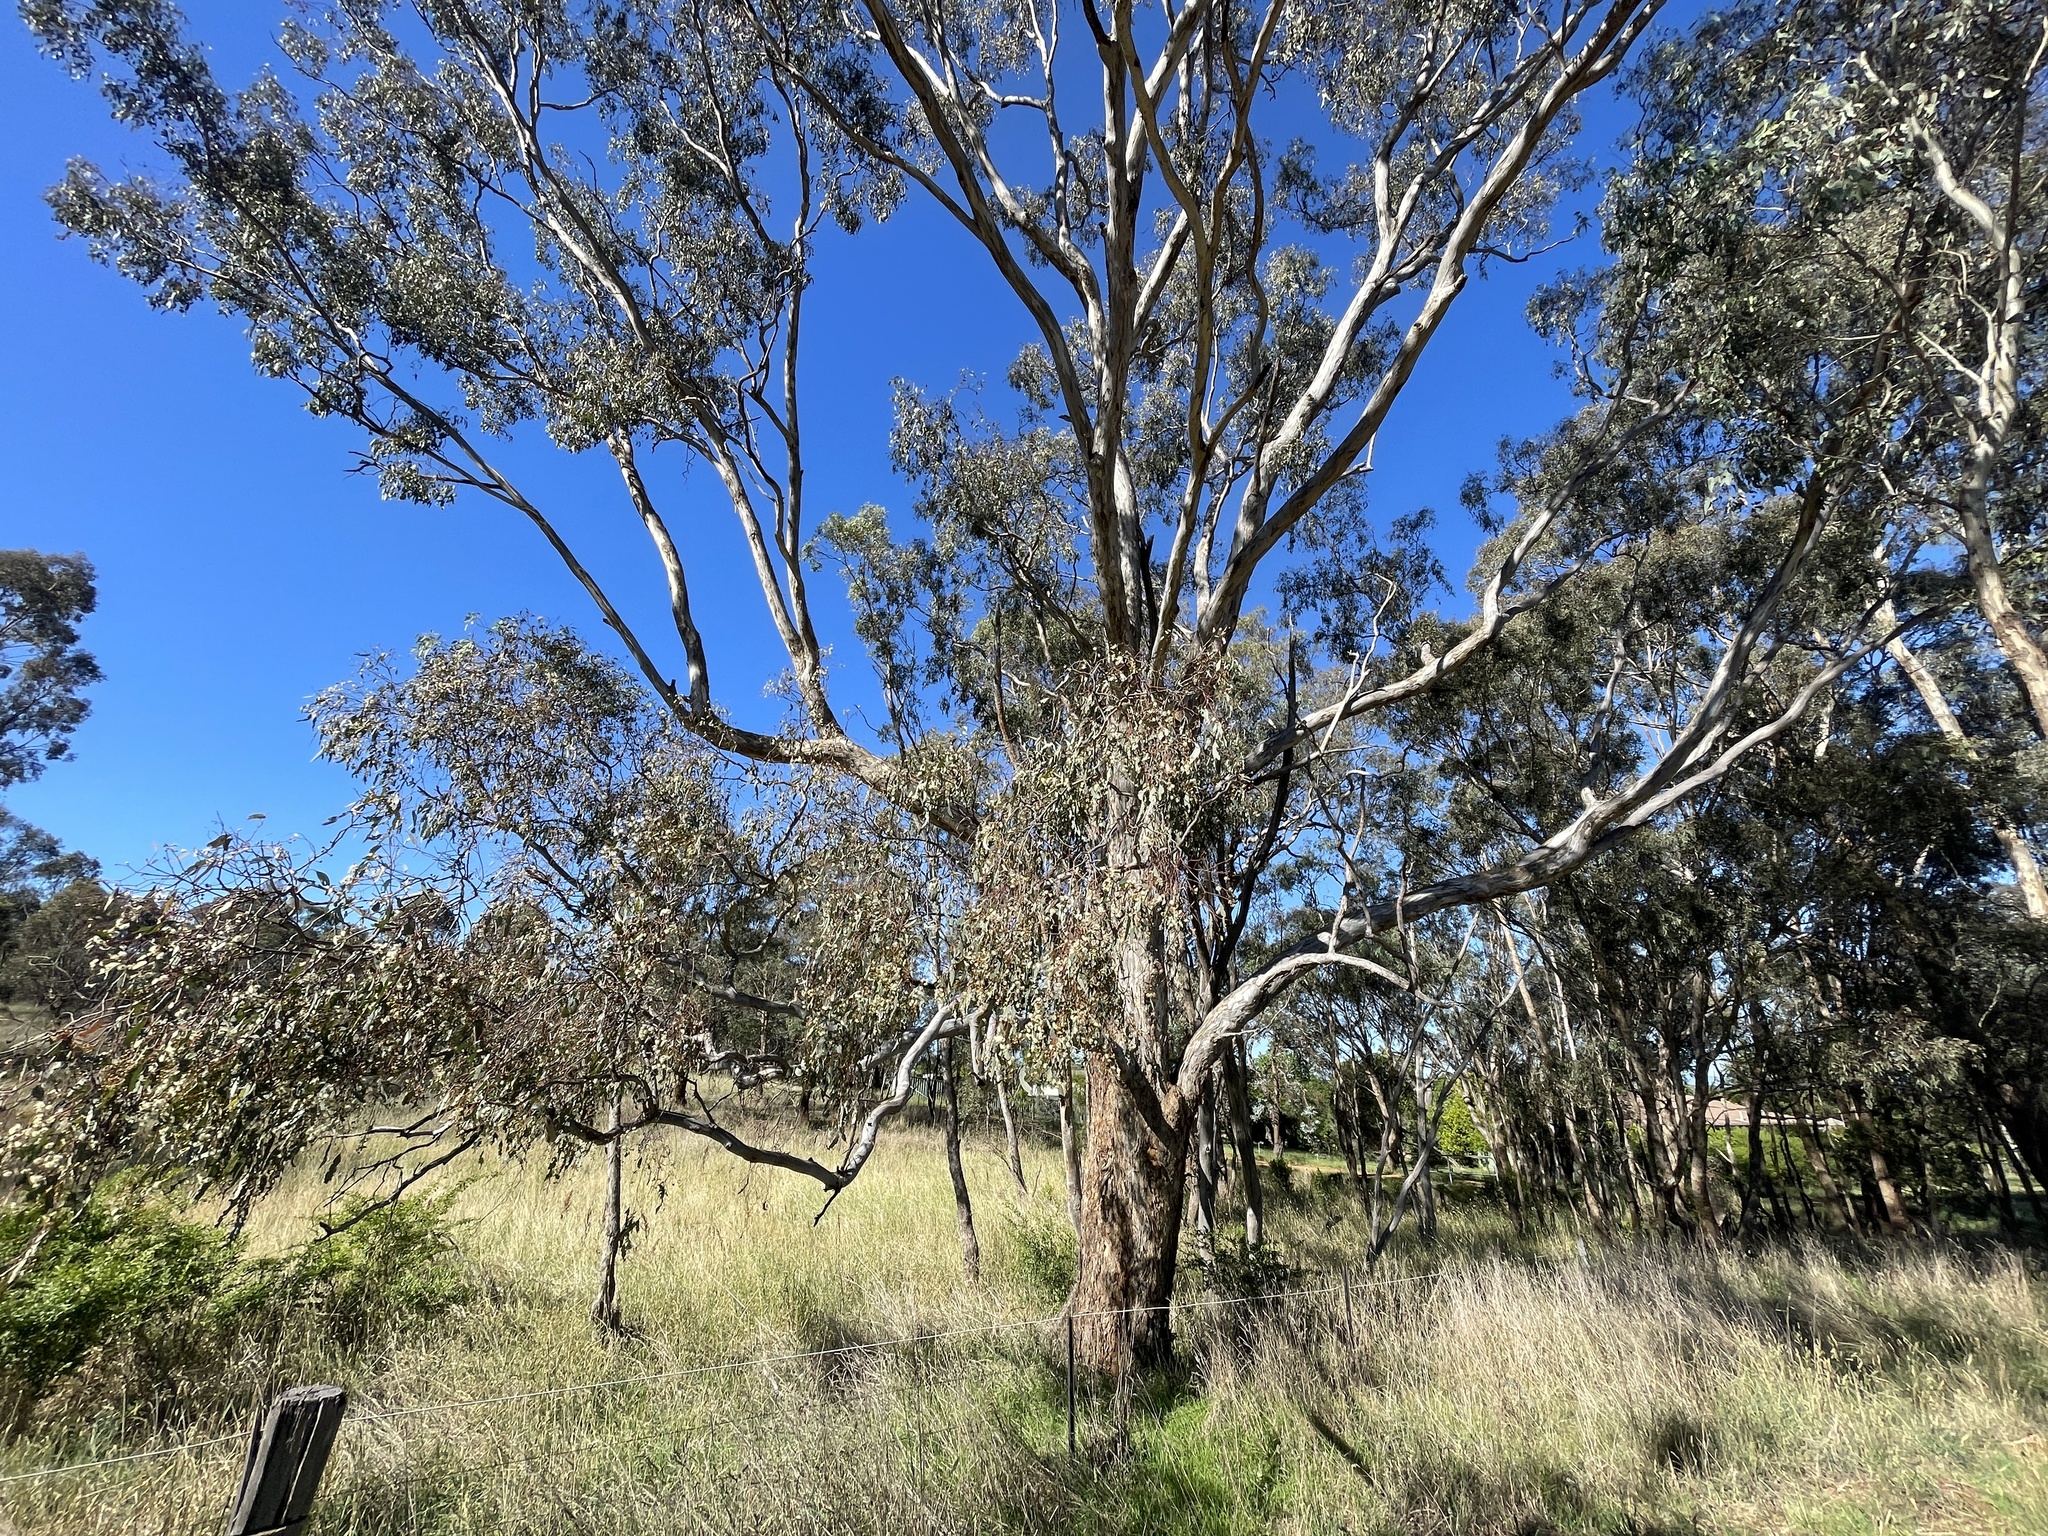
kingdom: Plantae
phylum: Tracheophyta
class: Magnoliopsida
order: Myrtales
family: Myrtaceae
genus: Eucalyptus
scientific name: Eucalyptus melliodora
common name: Yellow ironbox
